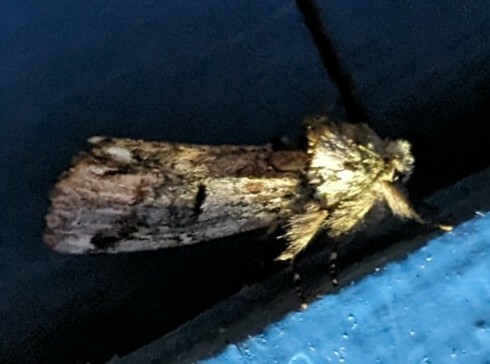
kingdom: Animalia
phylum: Arthropoda
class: Insecta
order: Lepidoptera
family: Notodontidae
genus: Schizura
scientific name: Schizura
